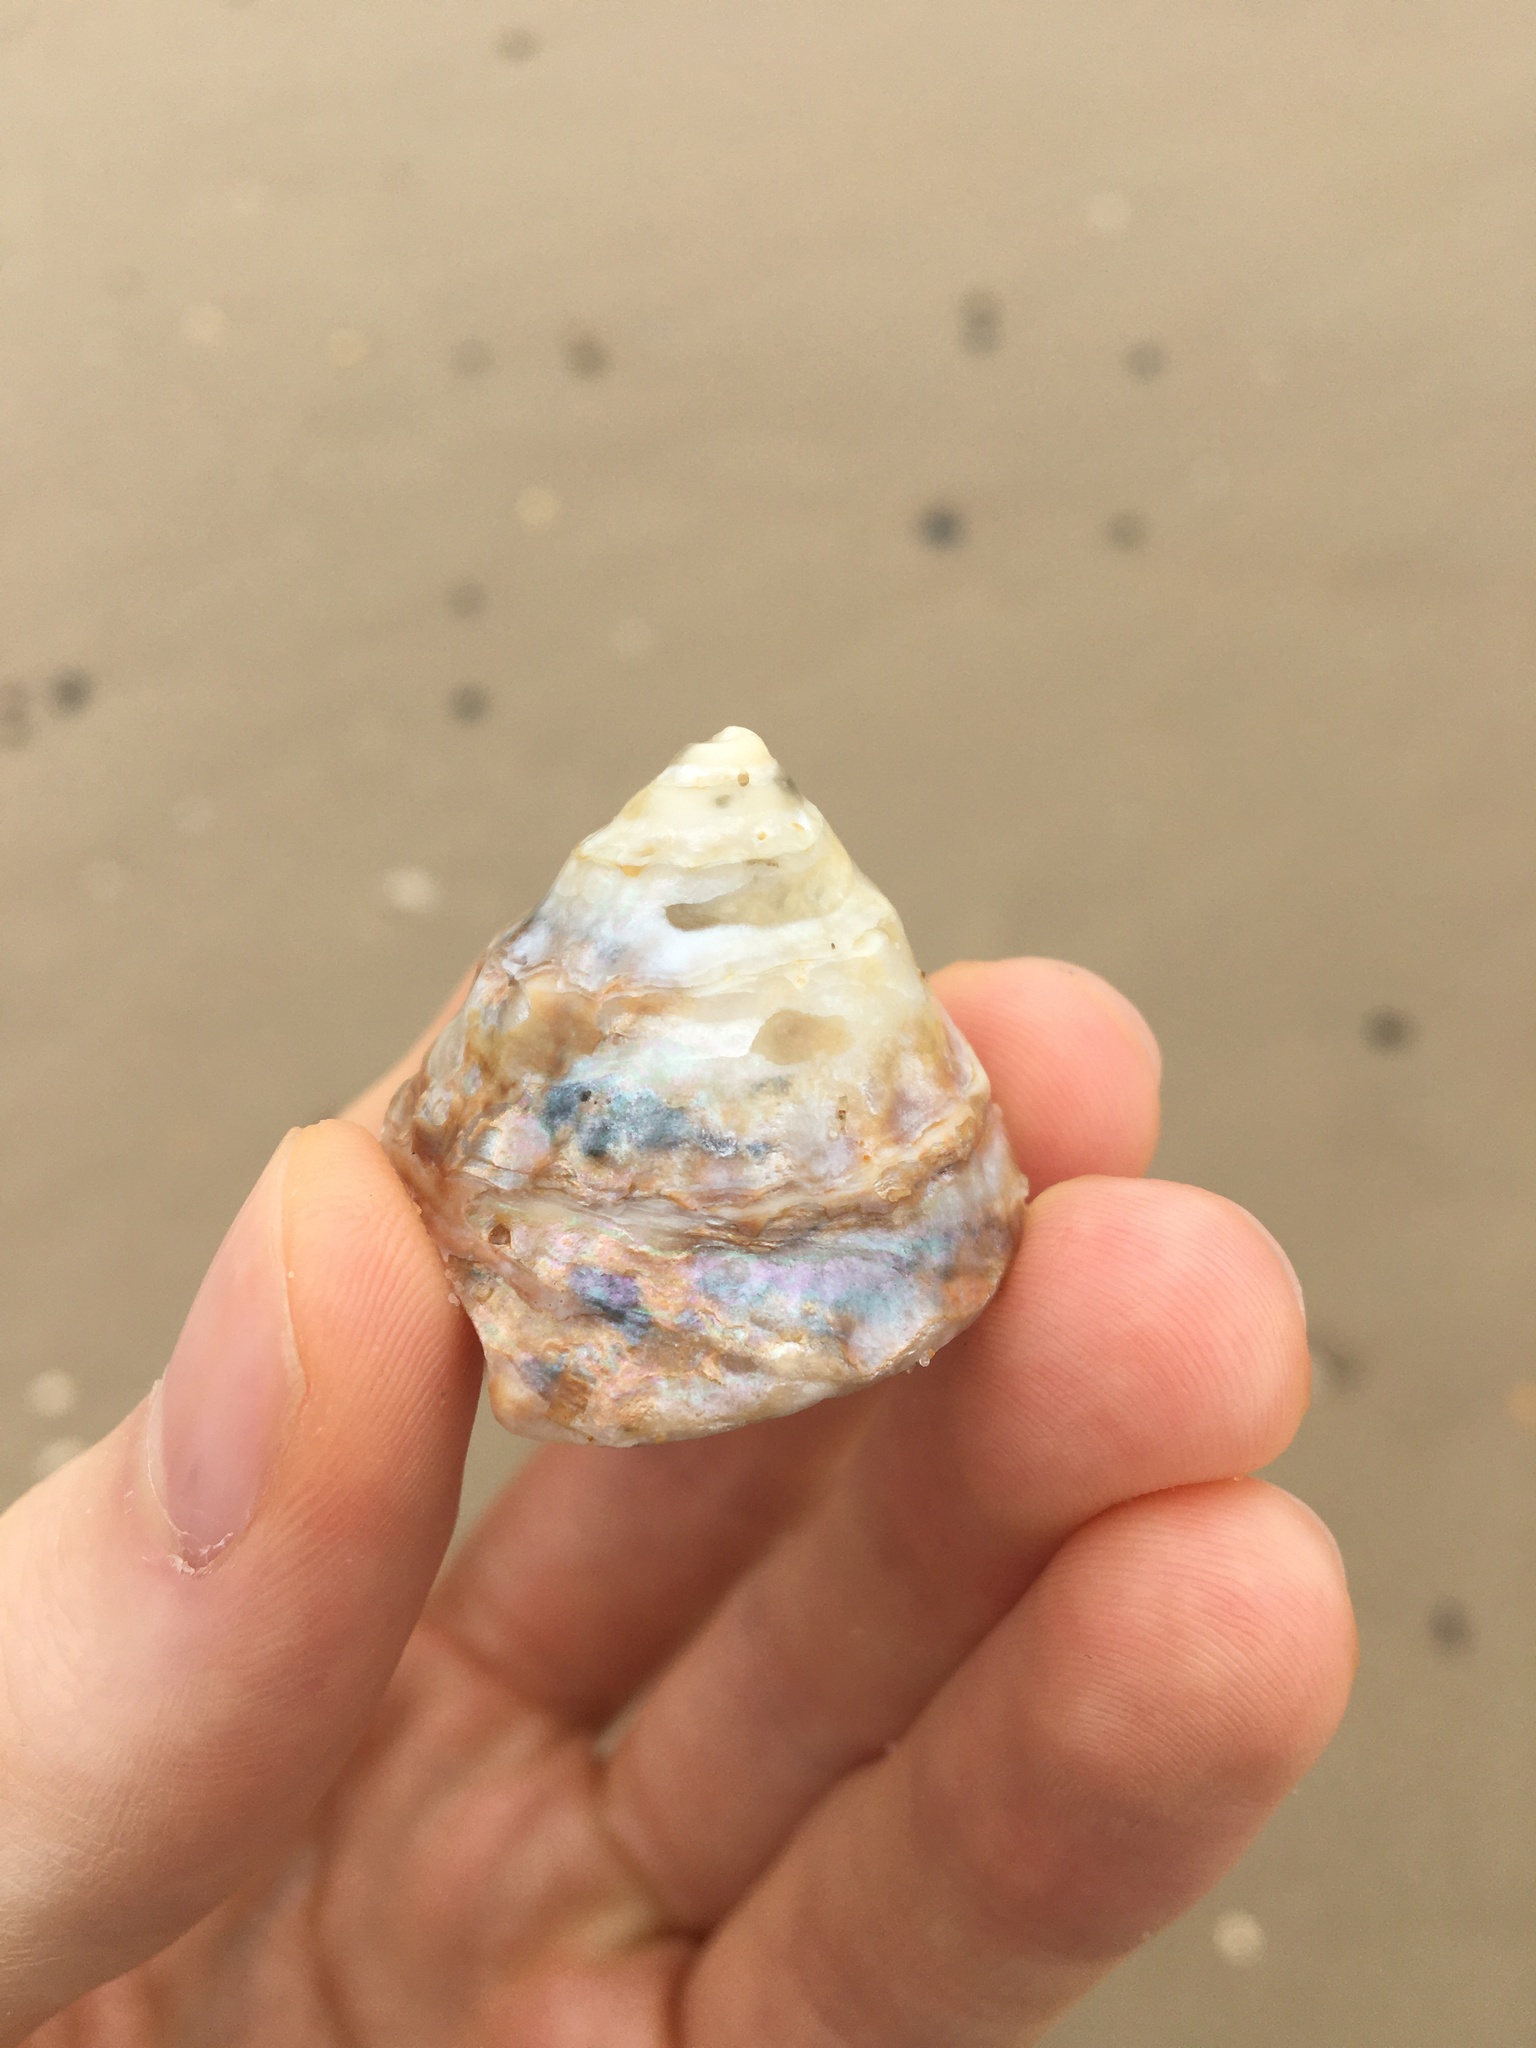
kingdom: Animalia
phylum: Mollusca
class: Gastropoda
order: Trochida
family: Turbinidae
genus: Astralium
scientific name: Astralium tentoriiforme
